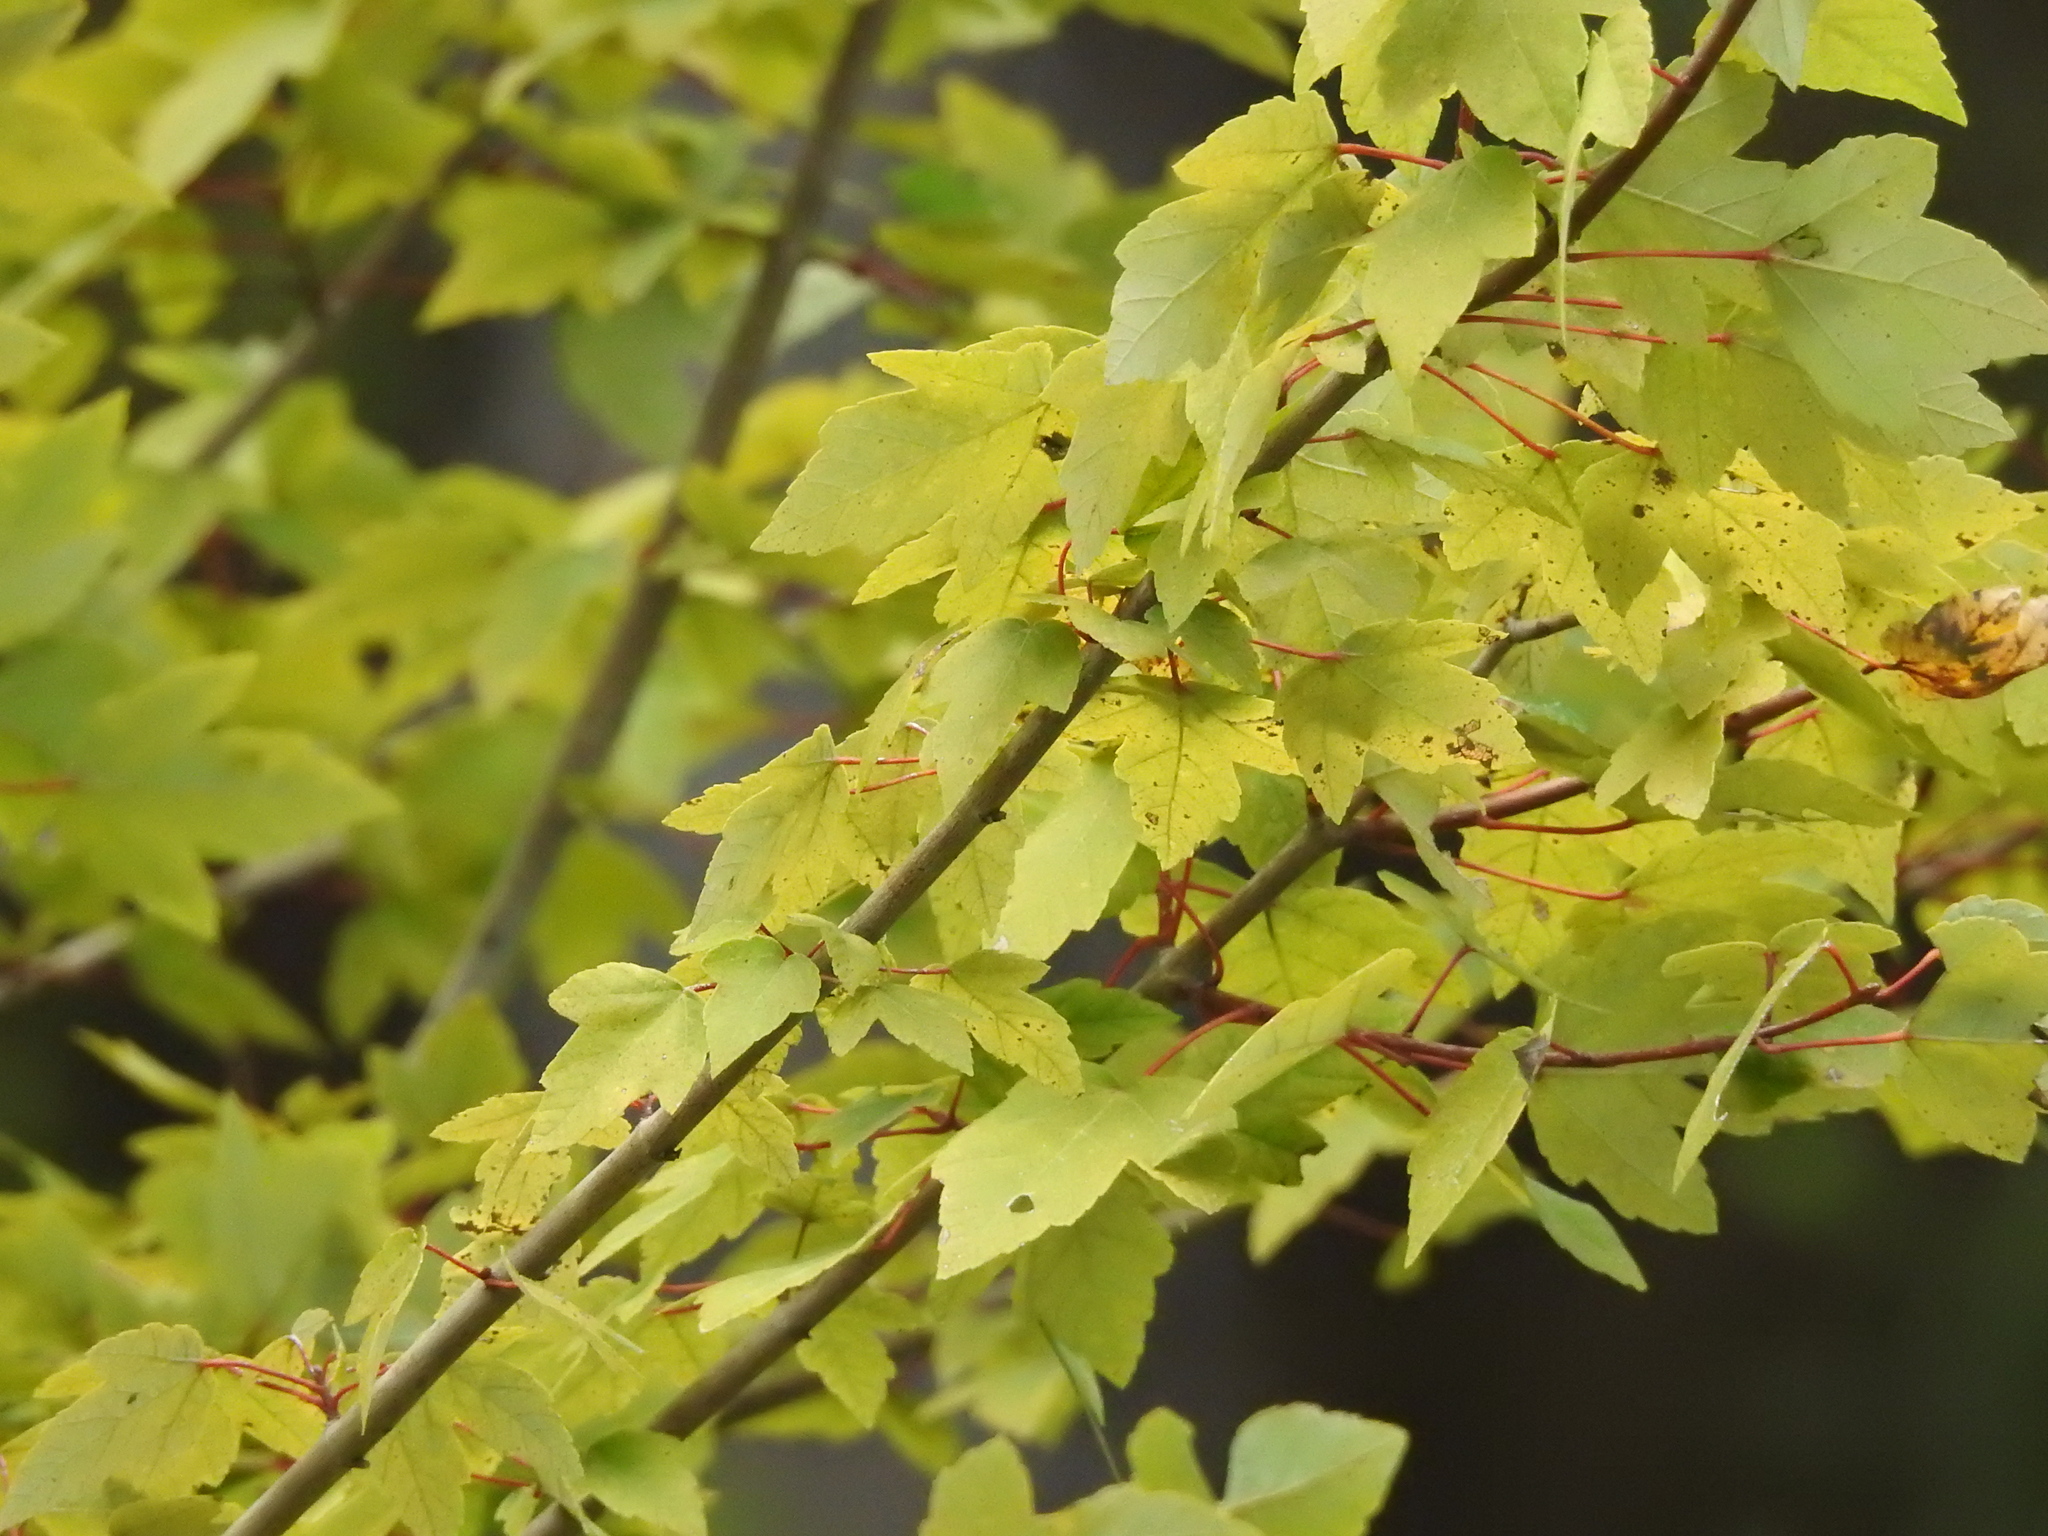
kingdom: Plantae
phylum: Tracheophyta
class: Magnoliopsida
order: Sapindales
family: Sapindaceae
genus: Acer
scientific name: Acer rubrum
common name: Red maple
